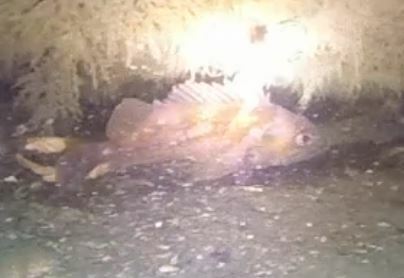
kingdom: Animalia
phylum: Chordata
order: Scorpaeniformes
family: Sebastidae
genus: Sebastes
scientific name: Sebastes caurinus
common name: Copper rockfish
